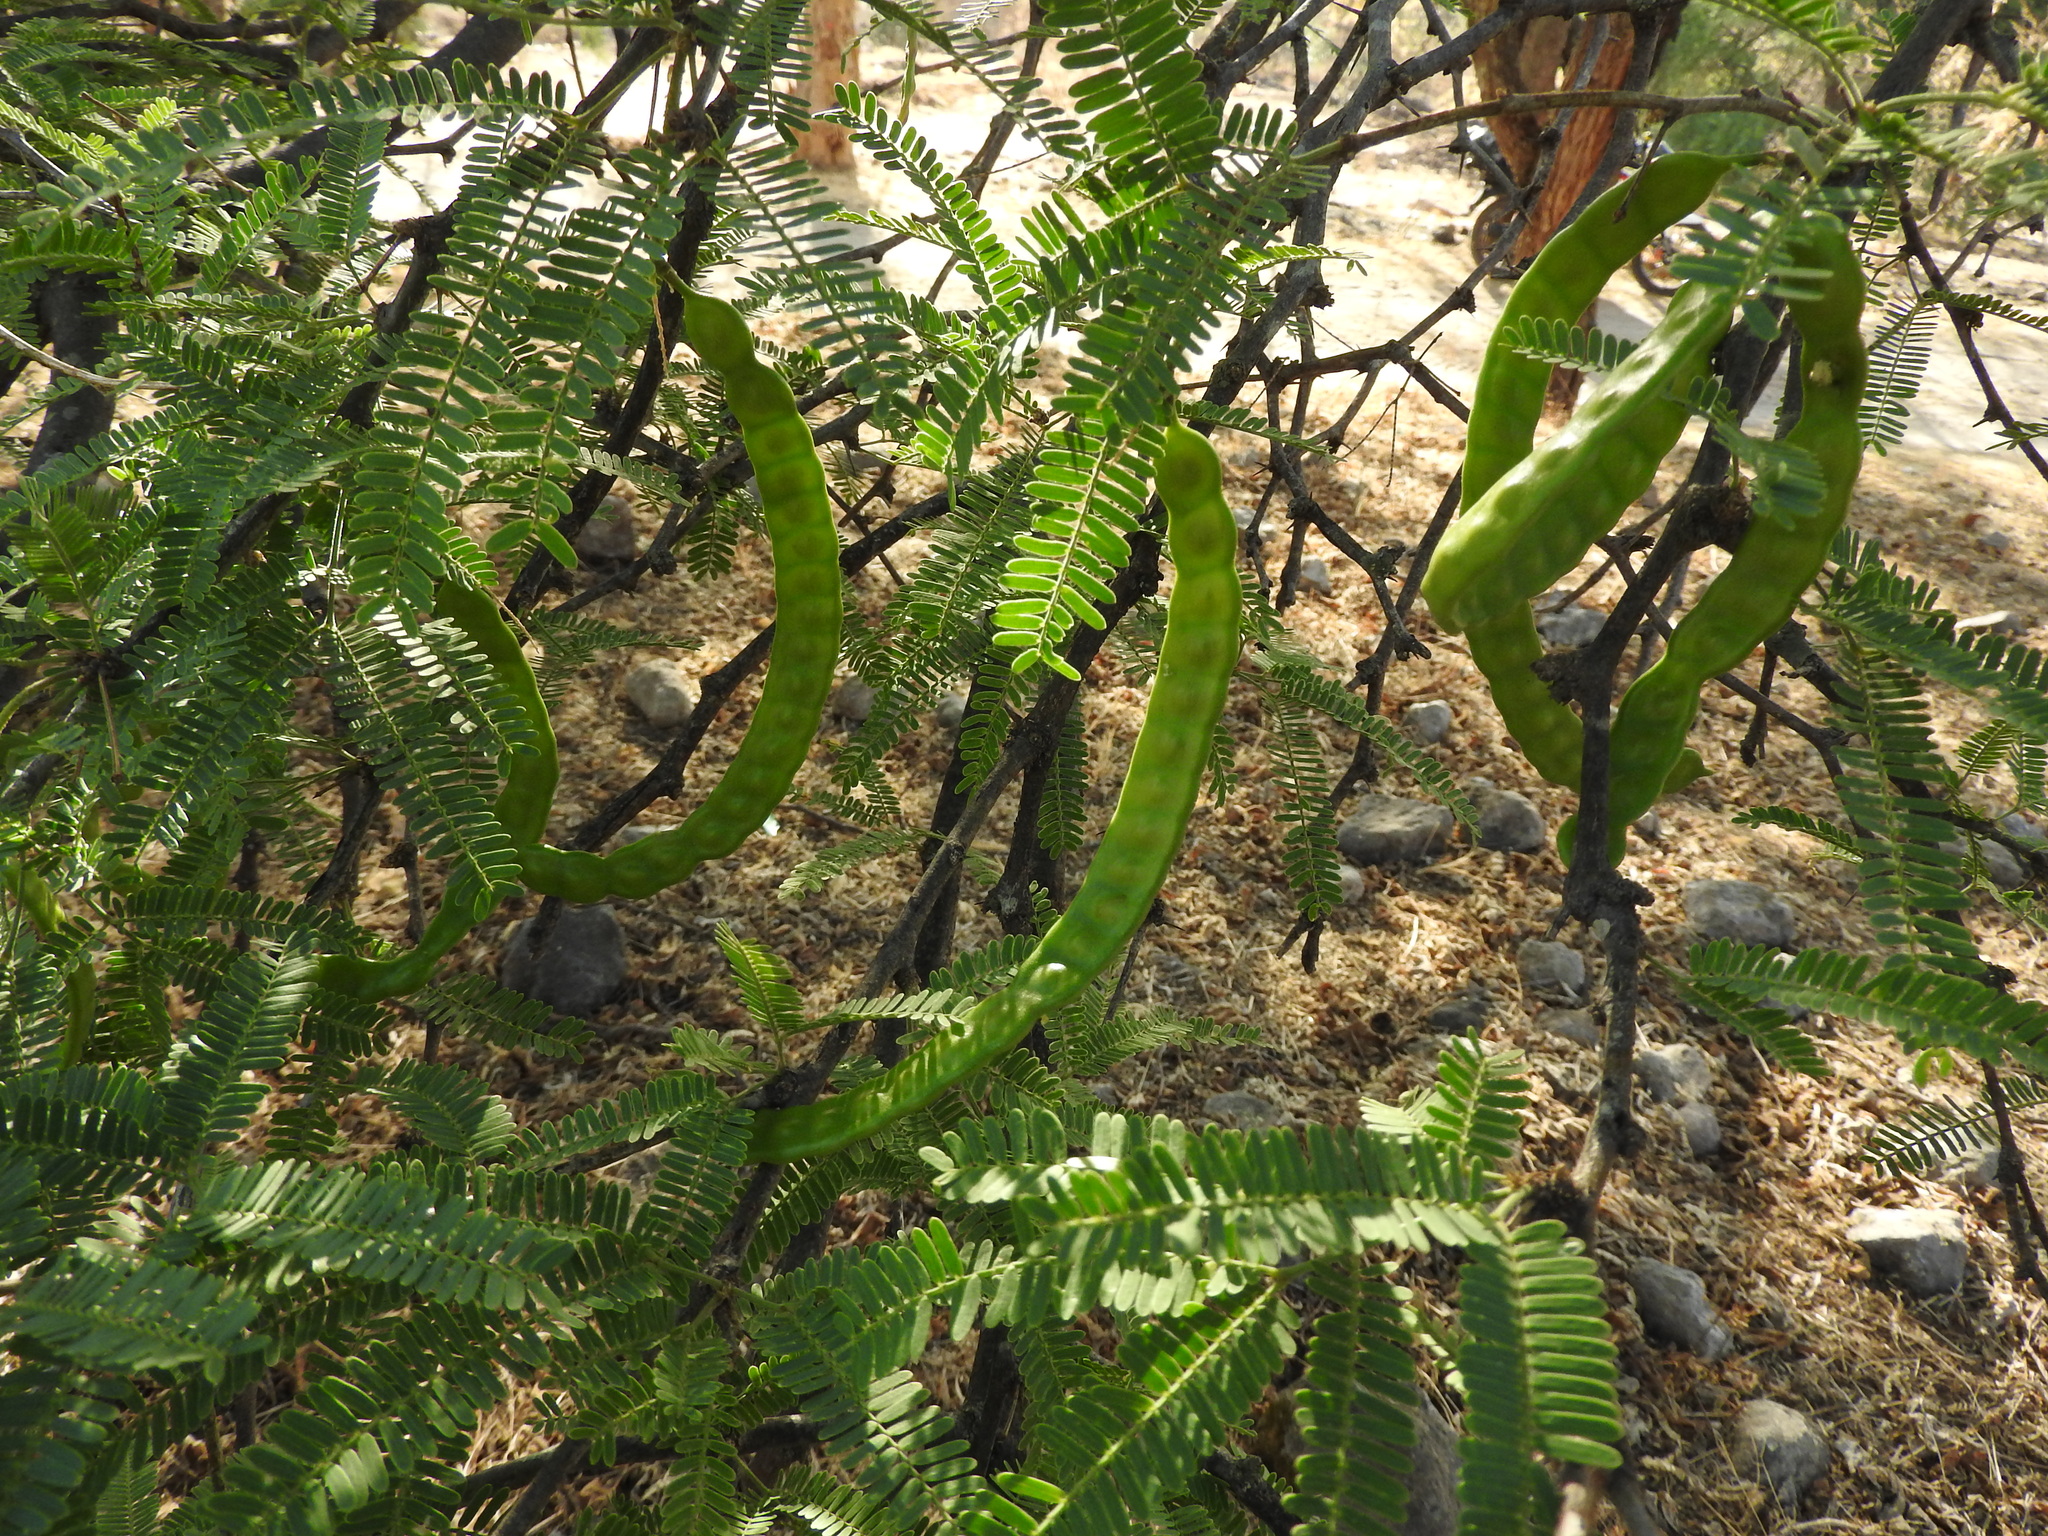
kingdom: Plantae
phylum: Tracheophyta
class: Magnoliopsida
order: Fabales
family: Fabaceae
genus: Prosopis
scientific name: Prosopis laevigata
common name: Smooth mesquite
